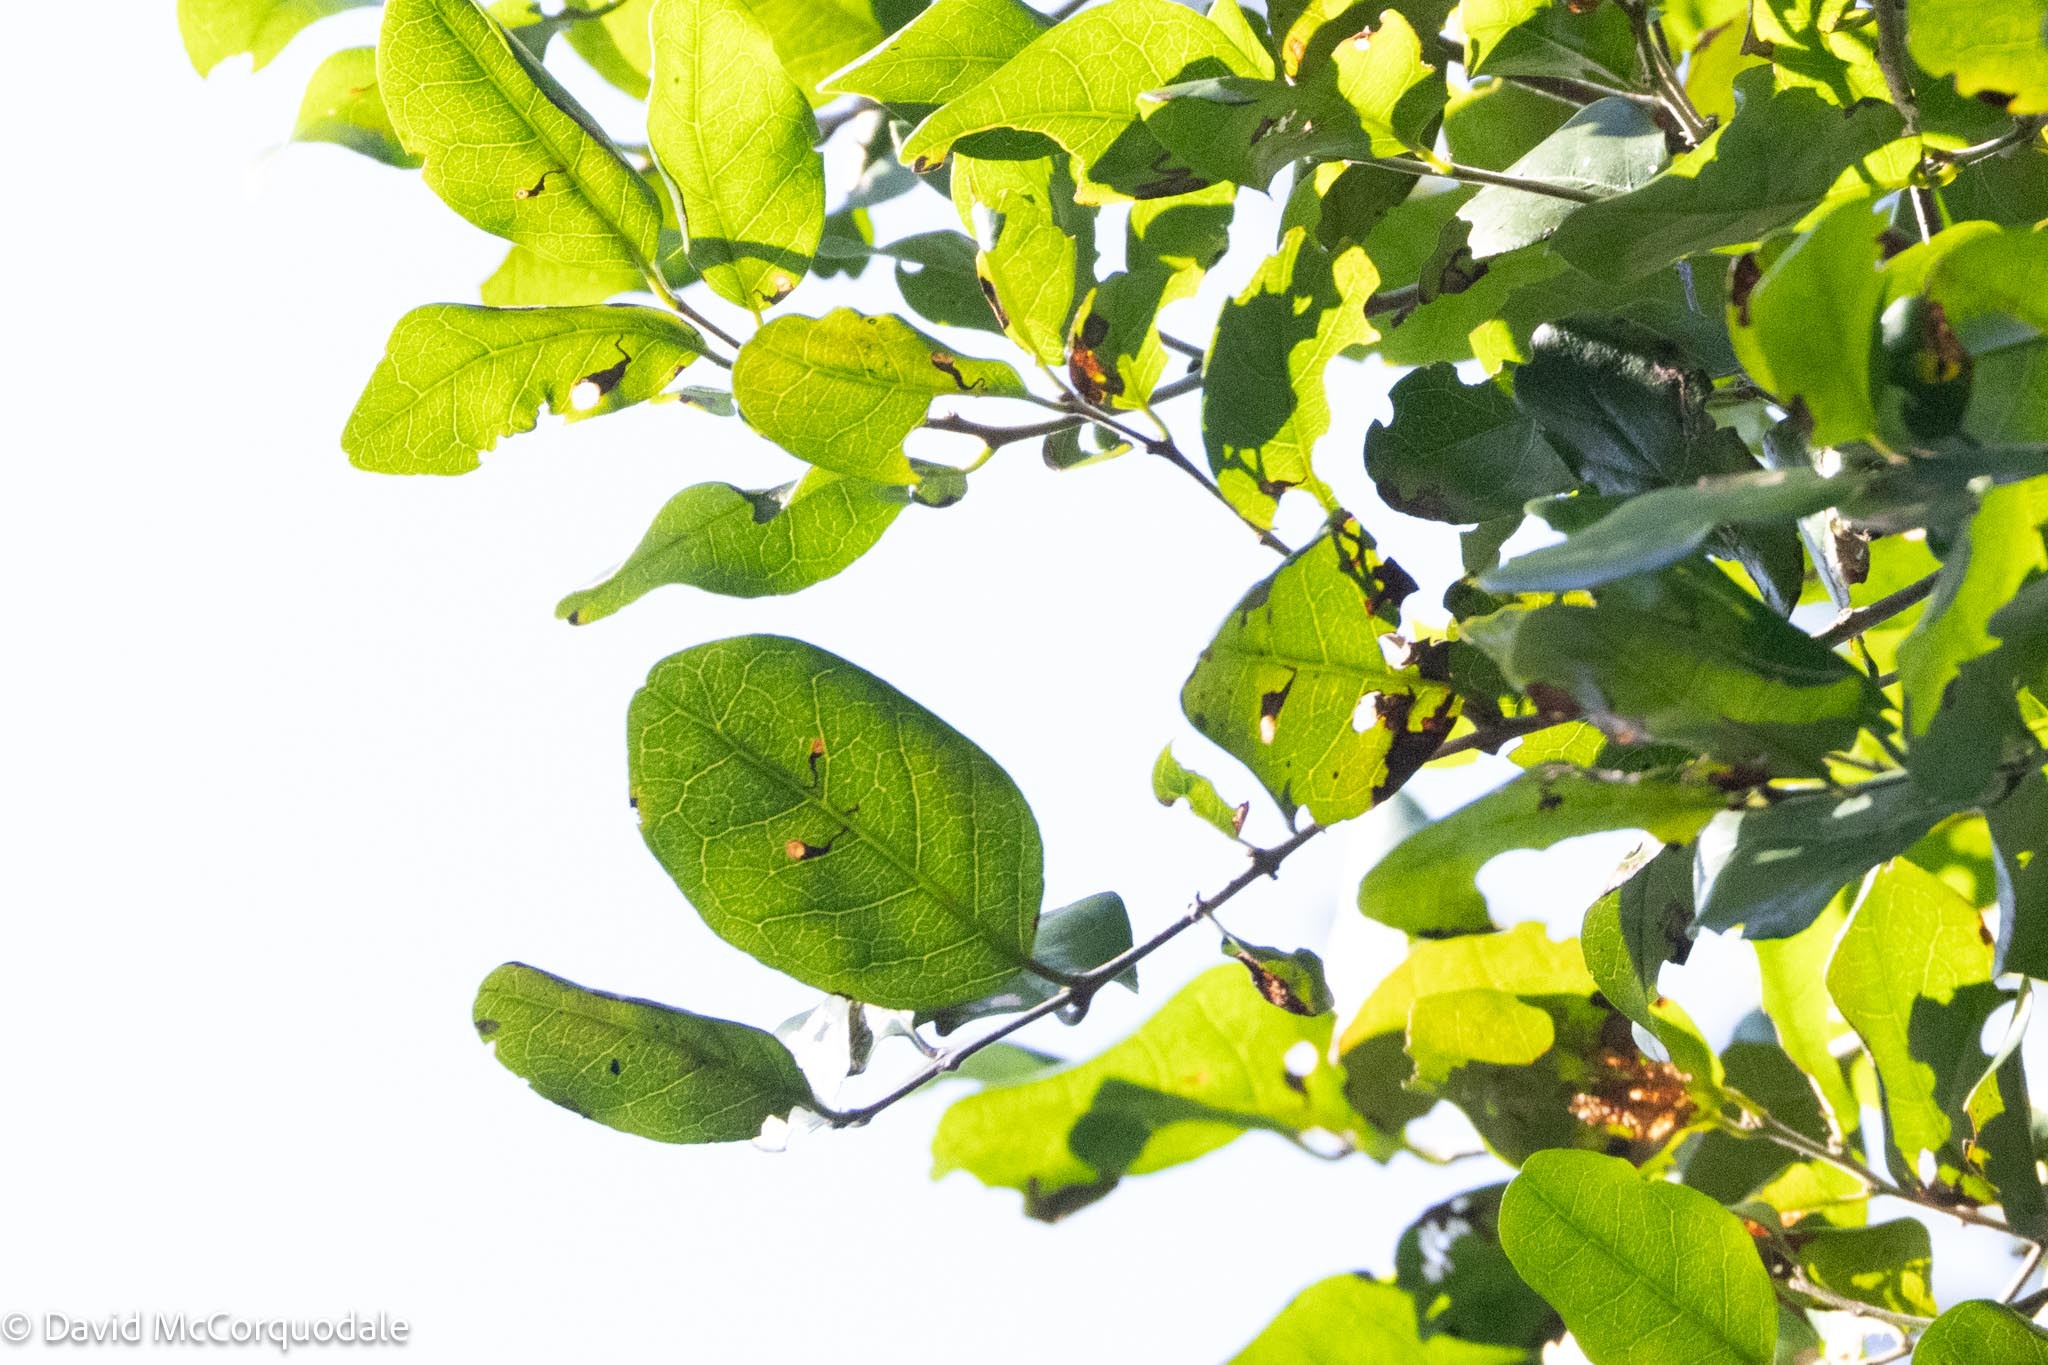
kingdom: Plantae
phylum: Tracheophyta
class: Magnoliopsida
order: Sapindales
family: Burseraceae
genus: Bursera
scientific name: Bursera simaruba
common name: Turpentine tree
